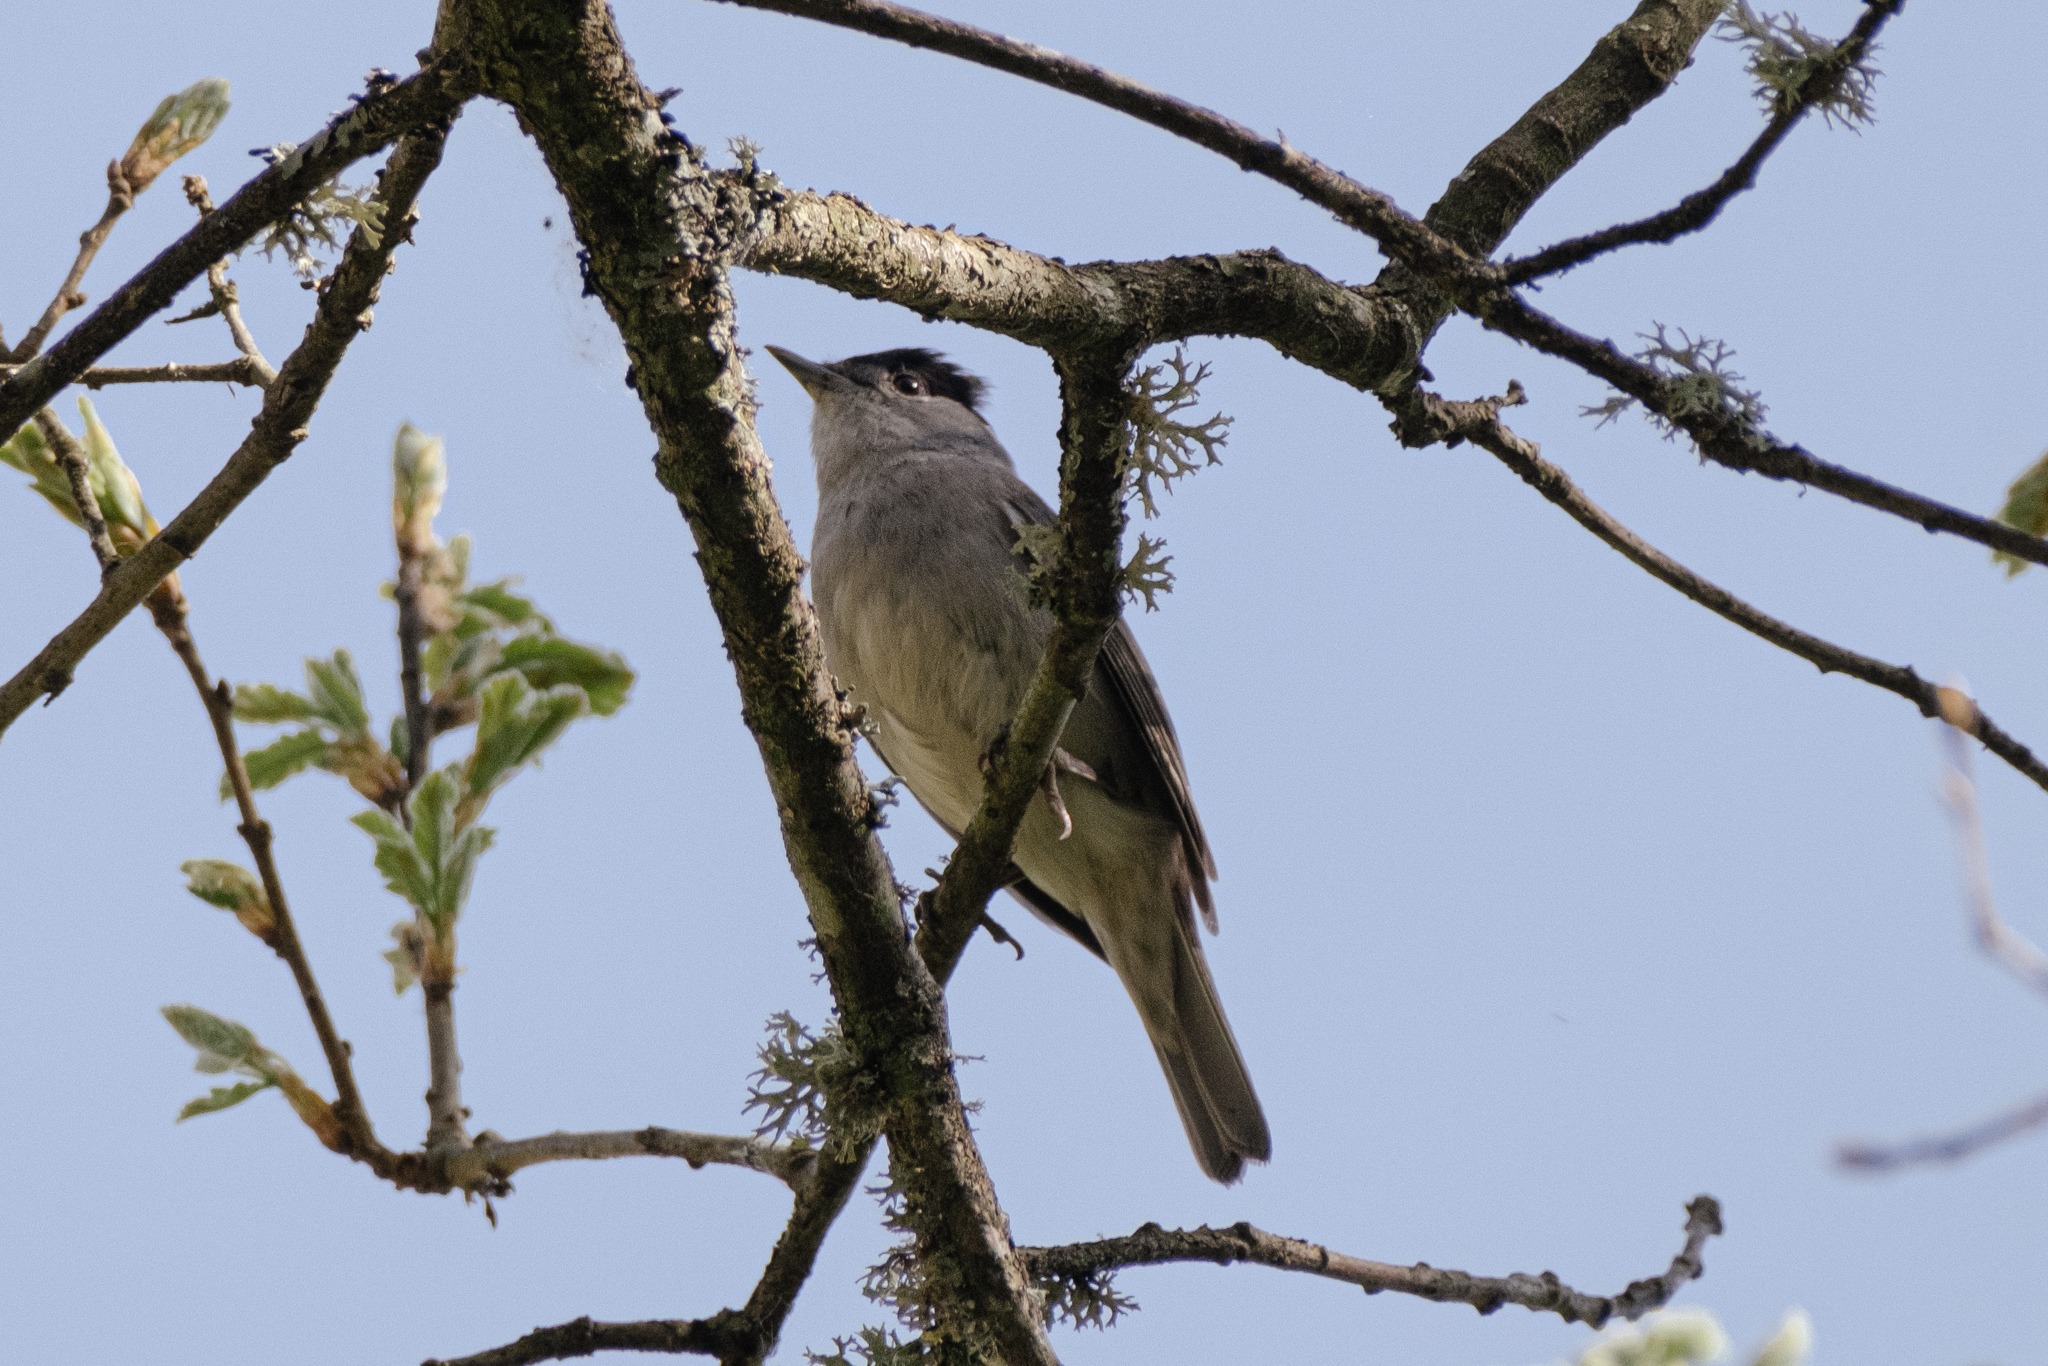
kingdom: Animalia
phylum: Chordata
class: Aves
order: Passeriformes
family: Sylviidae
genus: Sylvia
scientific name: Sylvia atricapilla
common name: Eurasian blackcap
